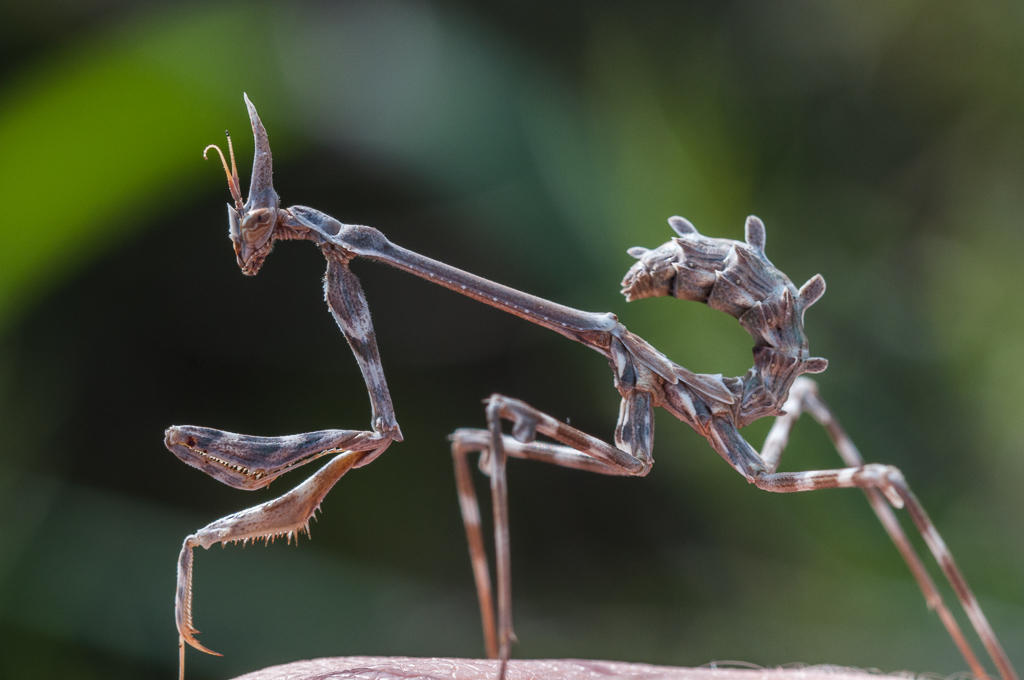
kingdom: Animalia
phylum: Arthropoda
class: Insecta
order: Mantodea
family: Empusidae
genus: Empusa
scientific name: Empusa binotata
